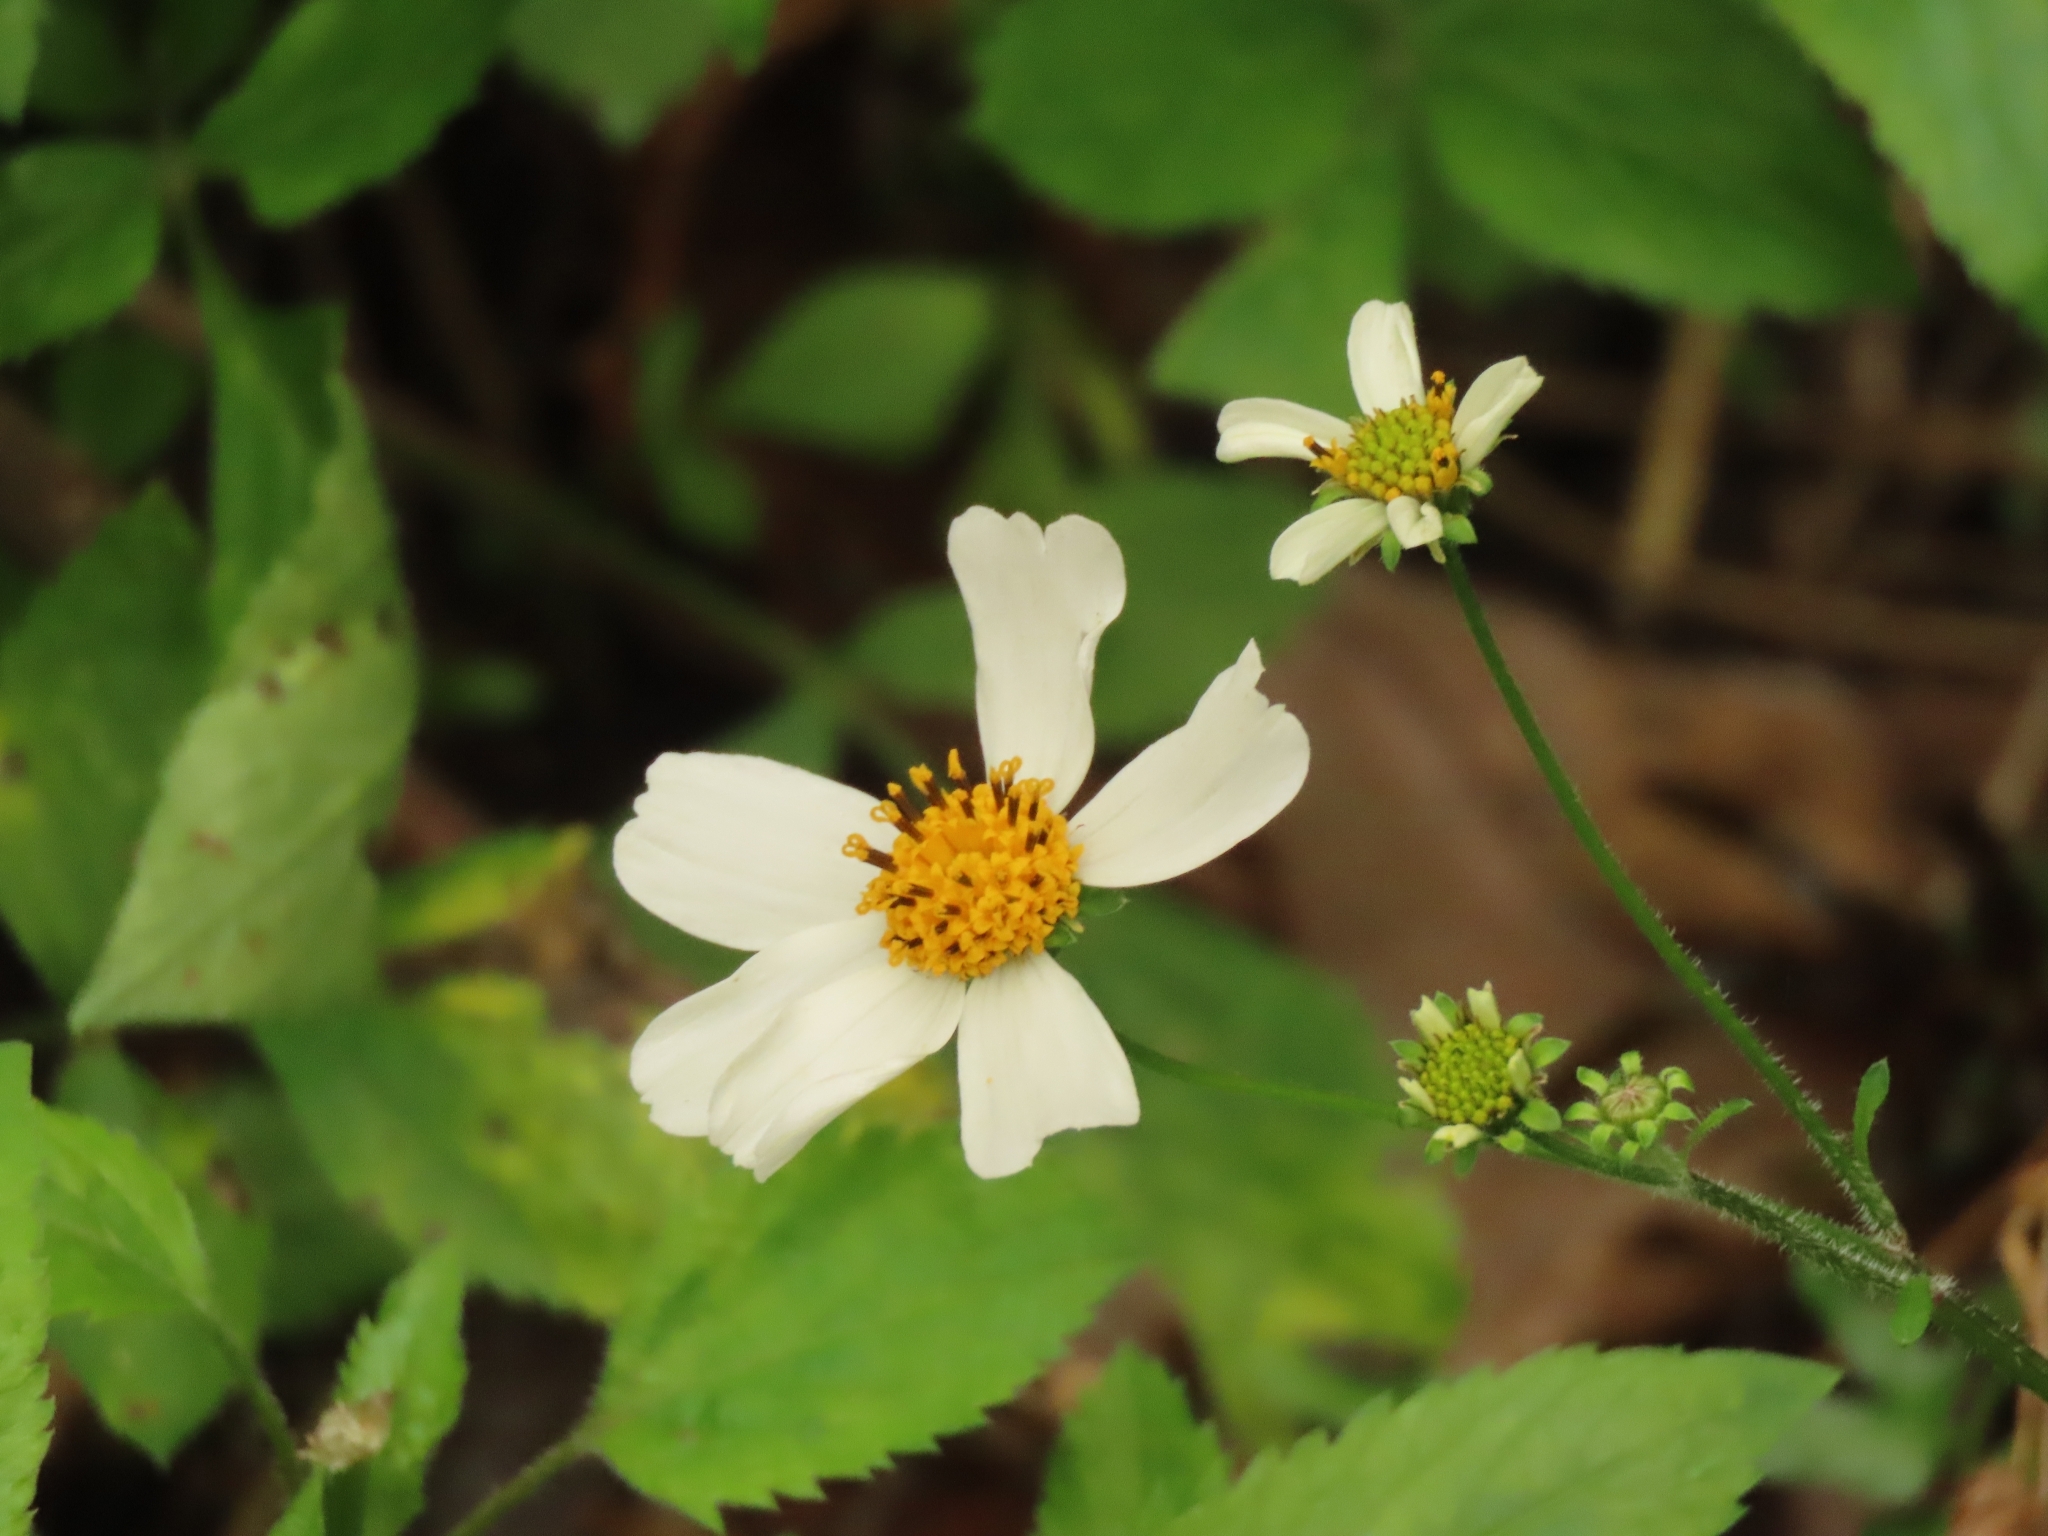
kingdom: Plantae
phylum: Tracheophyta
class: Magnoliopsida
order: Asterales
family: Asteraceae
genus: Bidens
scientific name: Bidens alba
